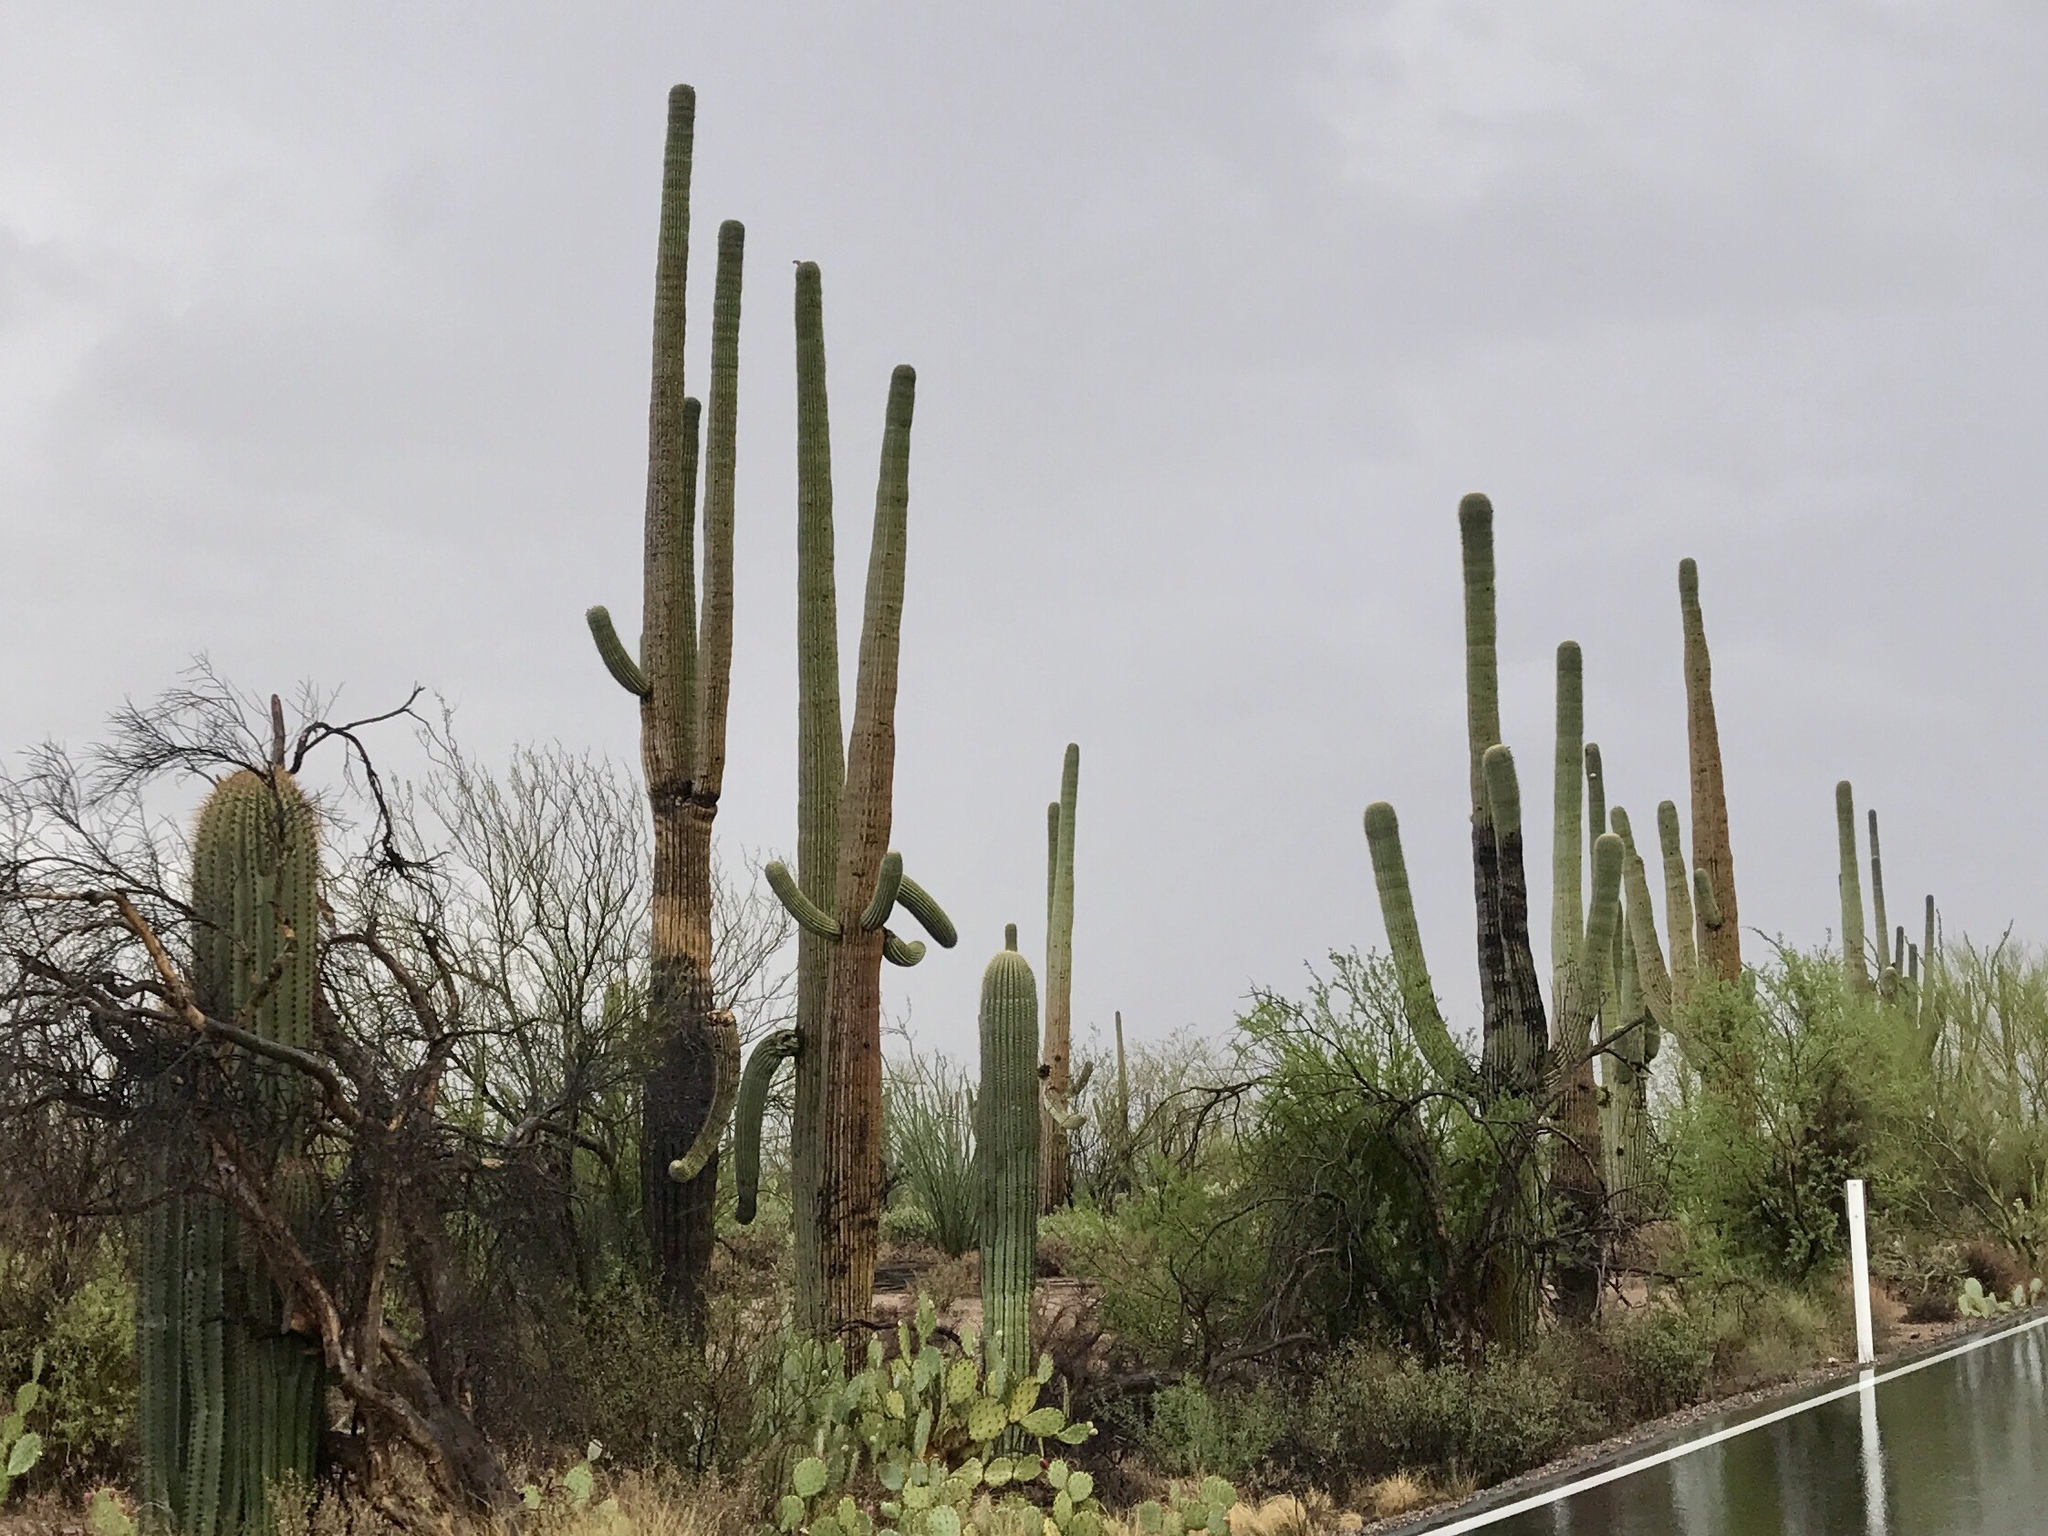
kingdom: Plantae
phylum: Tracheophyta
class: Magnoliopsida
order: Caryophyllales
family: Cactaceae
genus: Carnegiea
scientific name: Carnegiea gigantea
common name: Saguaro
